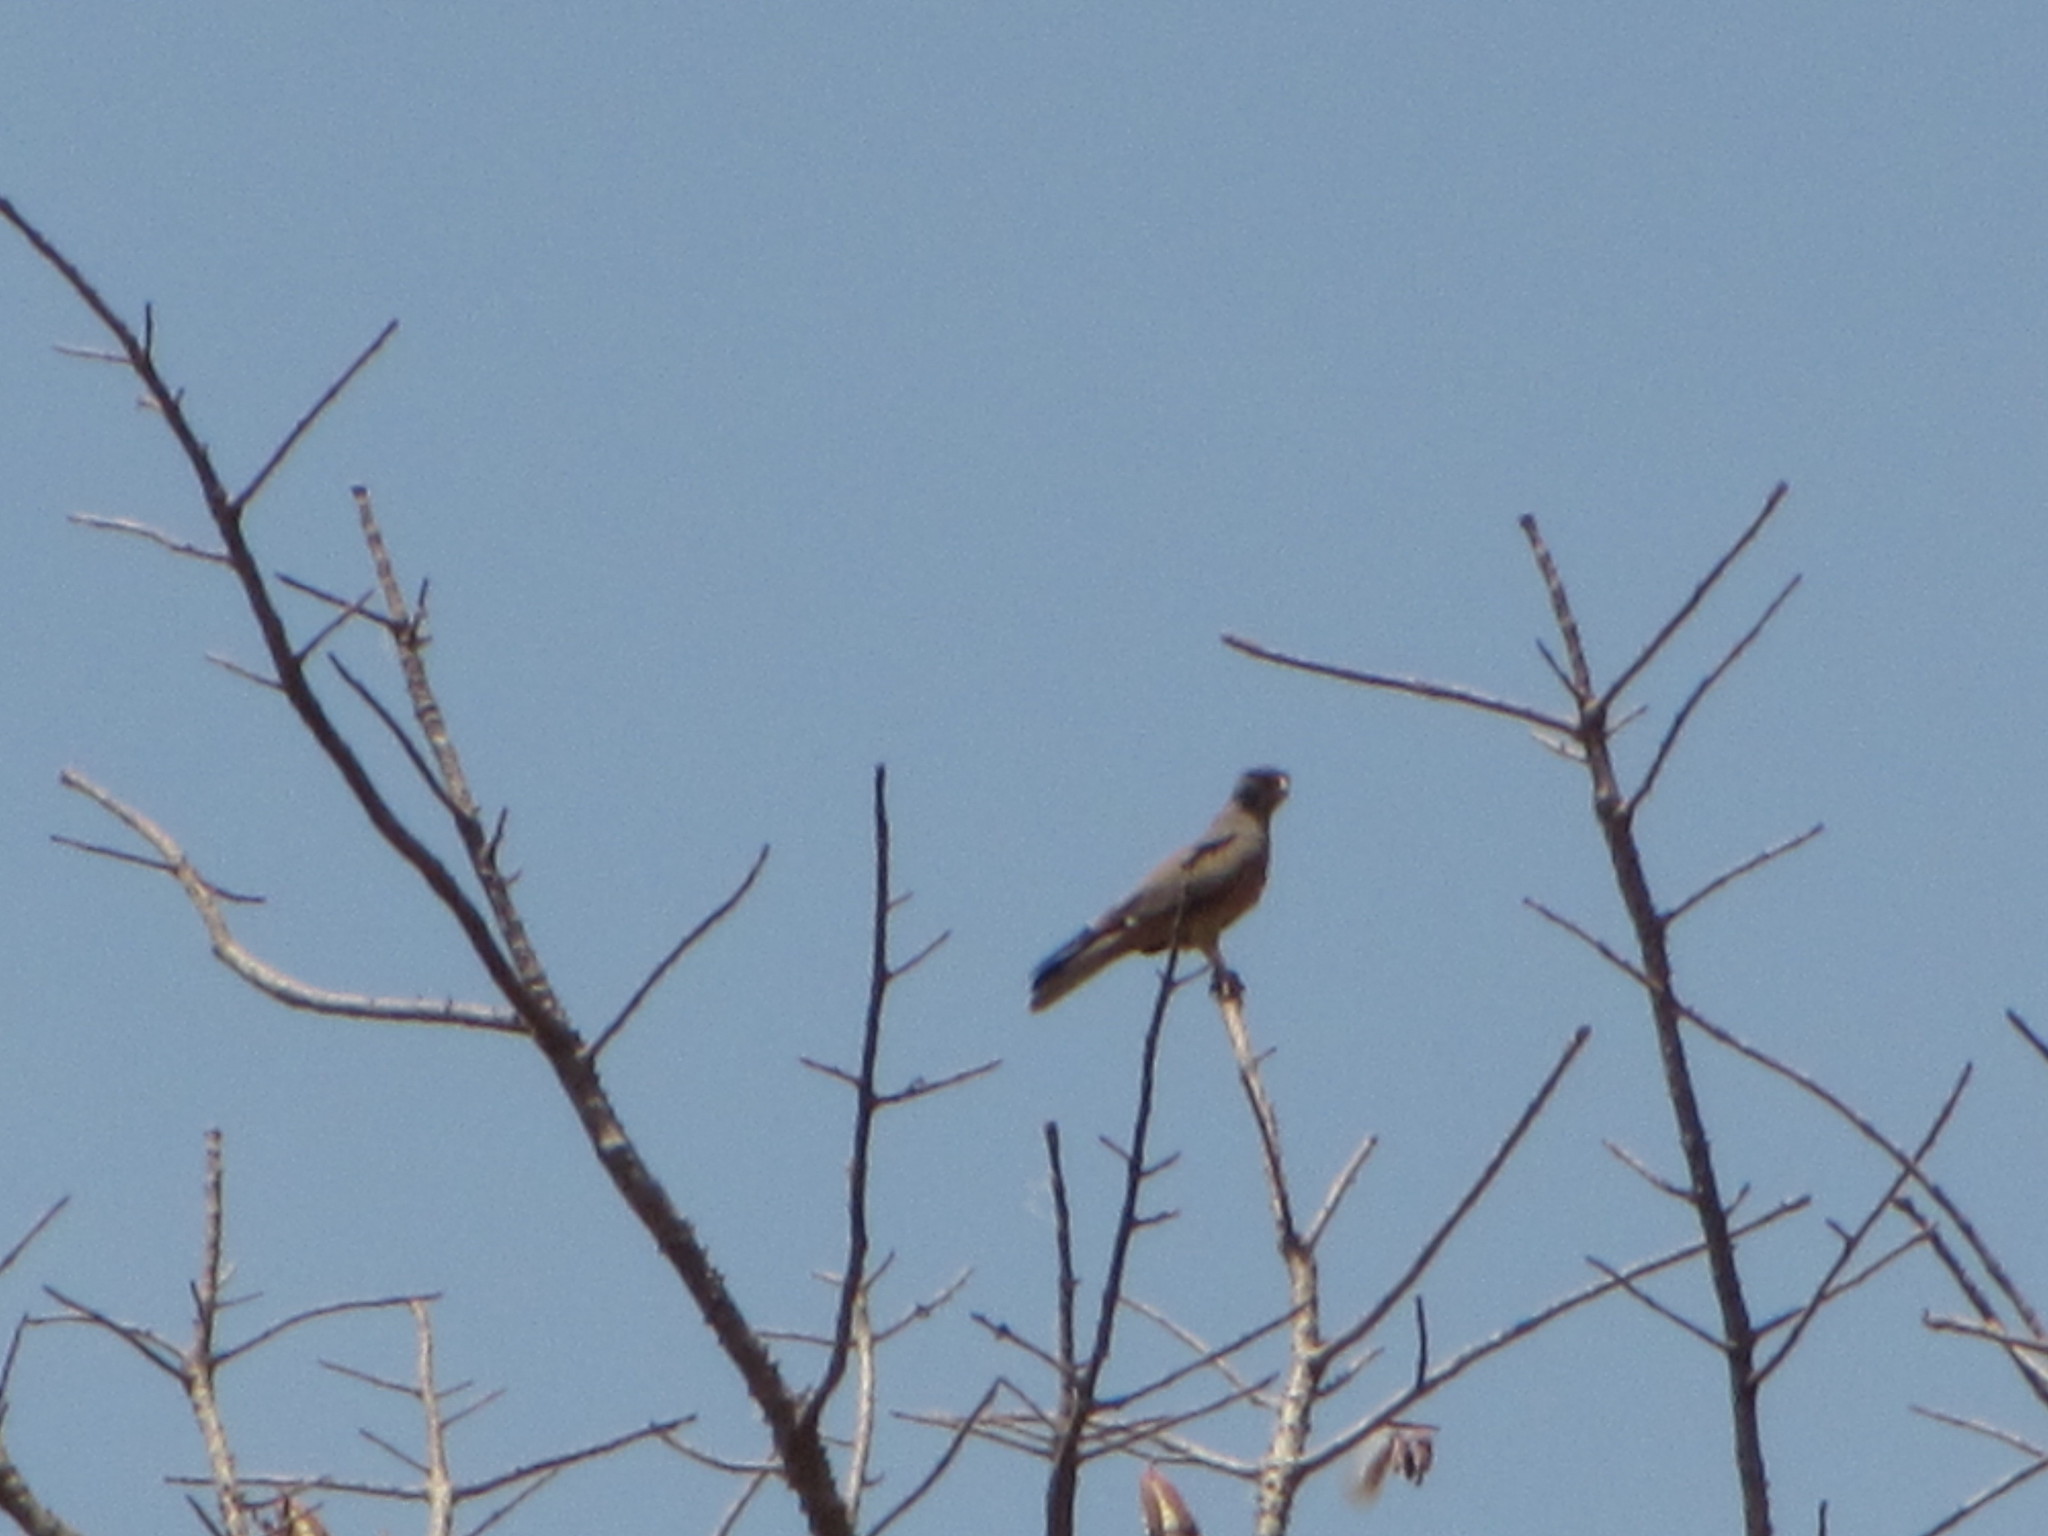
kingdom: Animalia
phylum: Chordata
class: Aves
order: Accipitriformes
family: Accipitridae
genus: Butastur
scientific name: Butastur rufipennis
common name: Grasshopper buzzard
